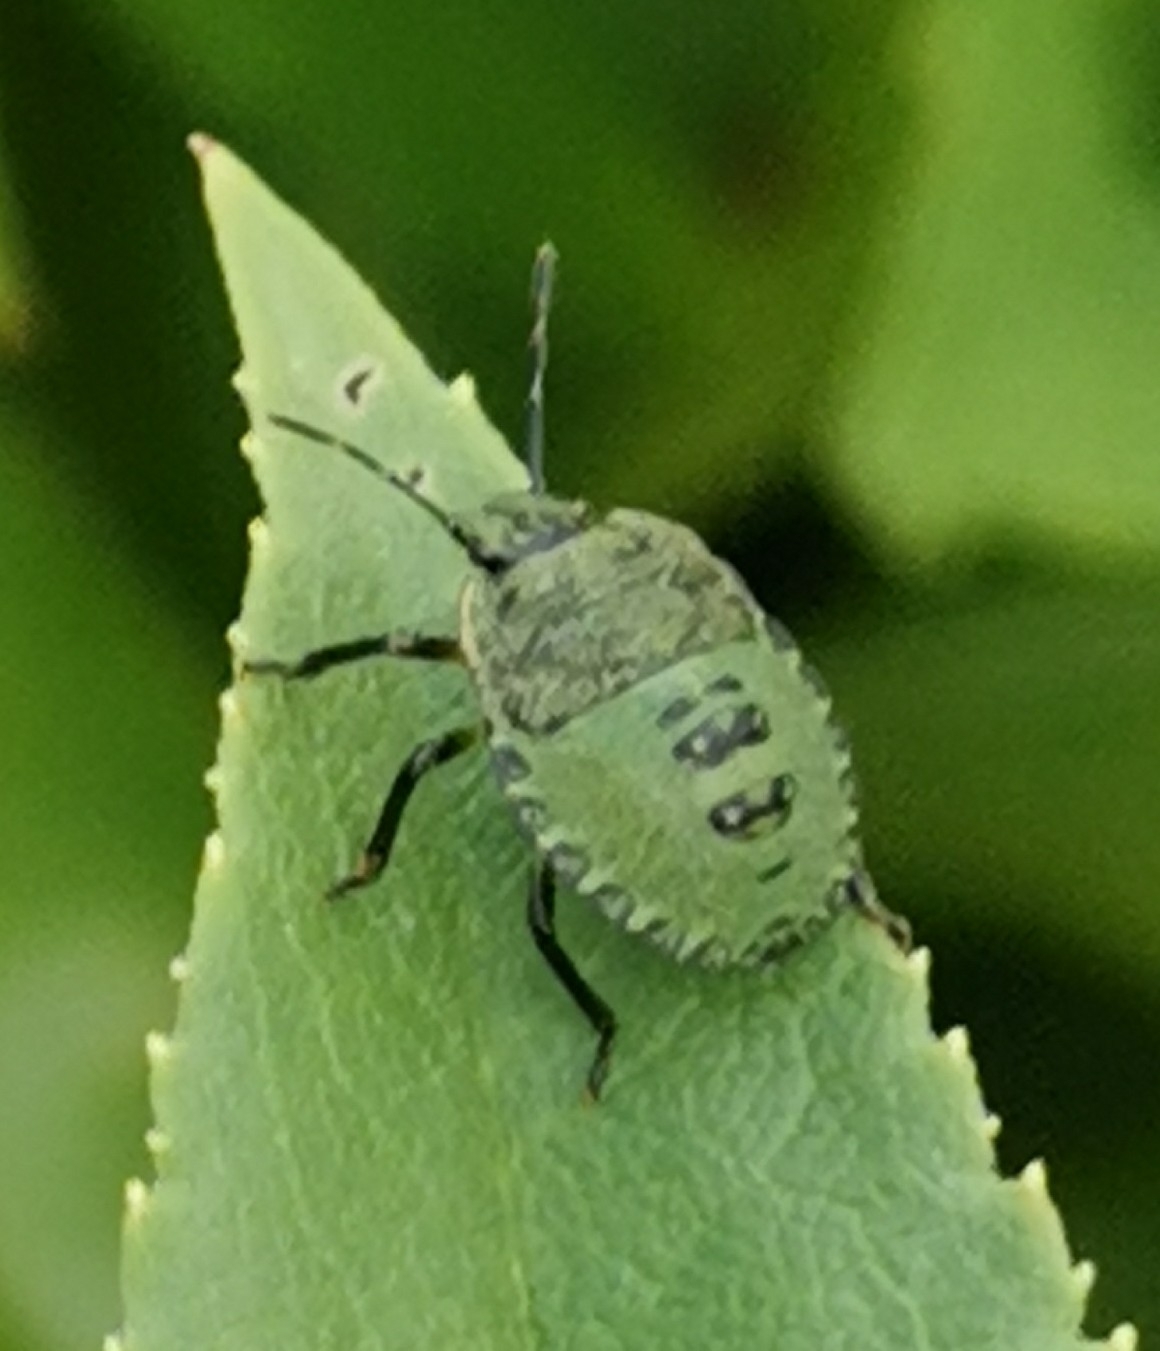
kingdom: Animalia
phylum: Arthropoda
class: Insecta
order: Hemiptera
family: Pentatomidae
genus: Palomena
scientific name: Palomena prasina
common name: Green shieldbug
